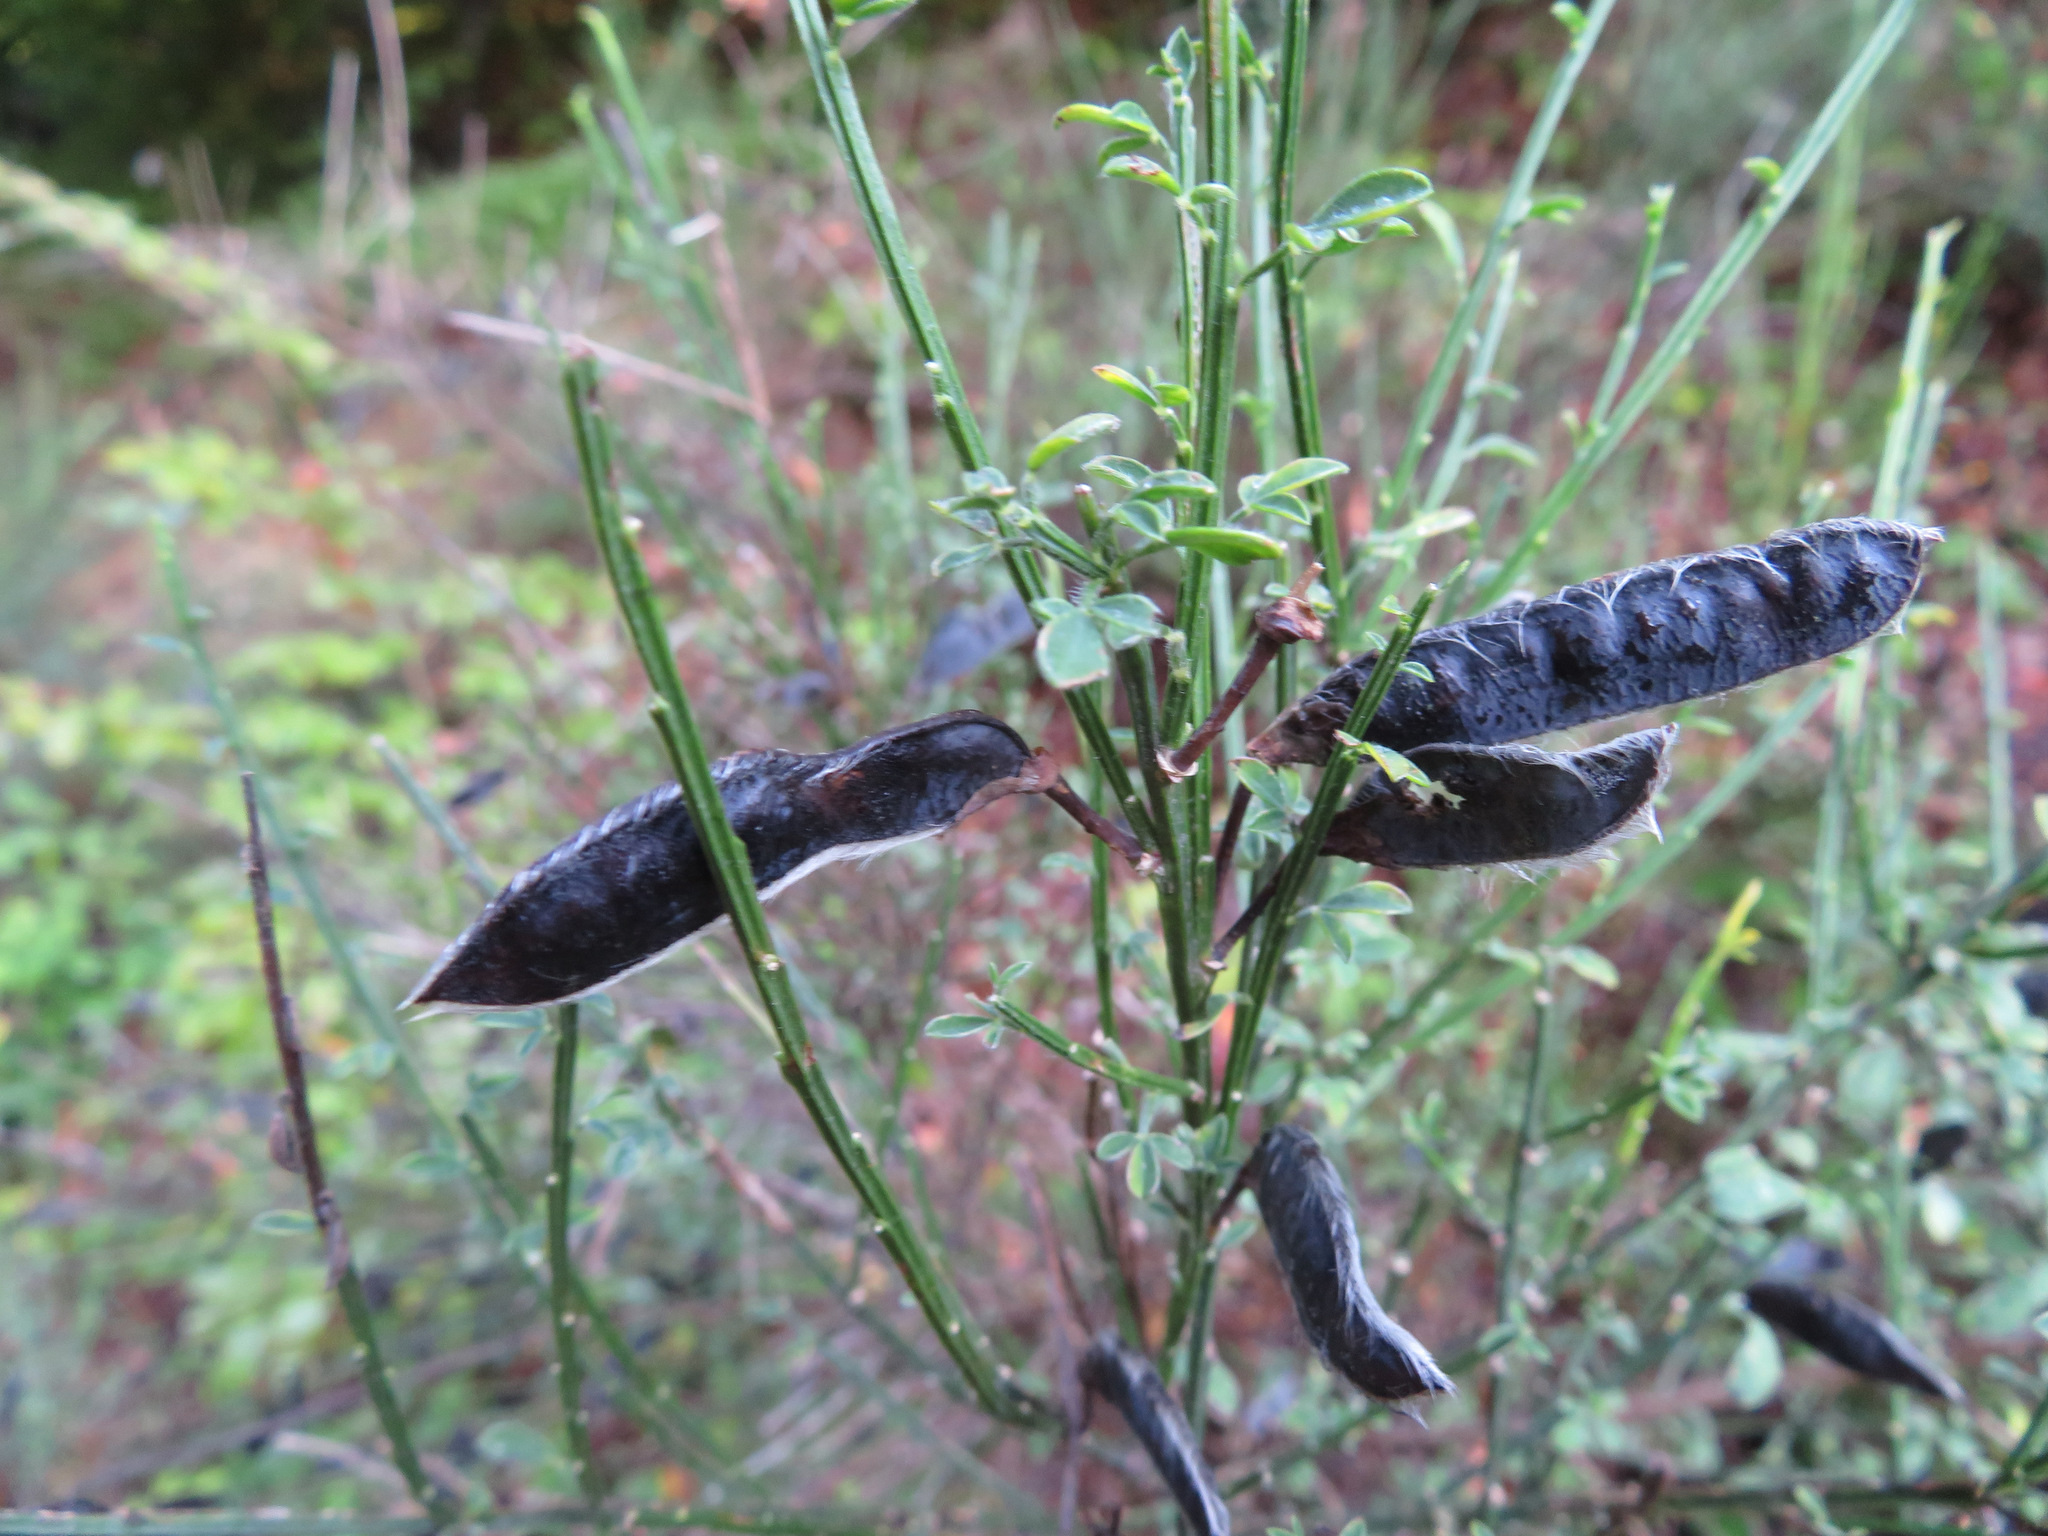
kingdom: Plantae
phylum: Tracheophyta
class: Magnoliopsida
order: Fabales
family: Fabaceae
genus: Cytisus
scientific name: Cytisus scoparius
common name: Scotch broom
